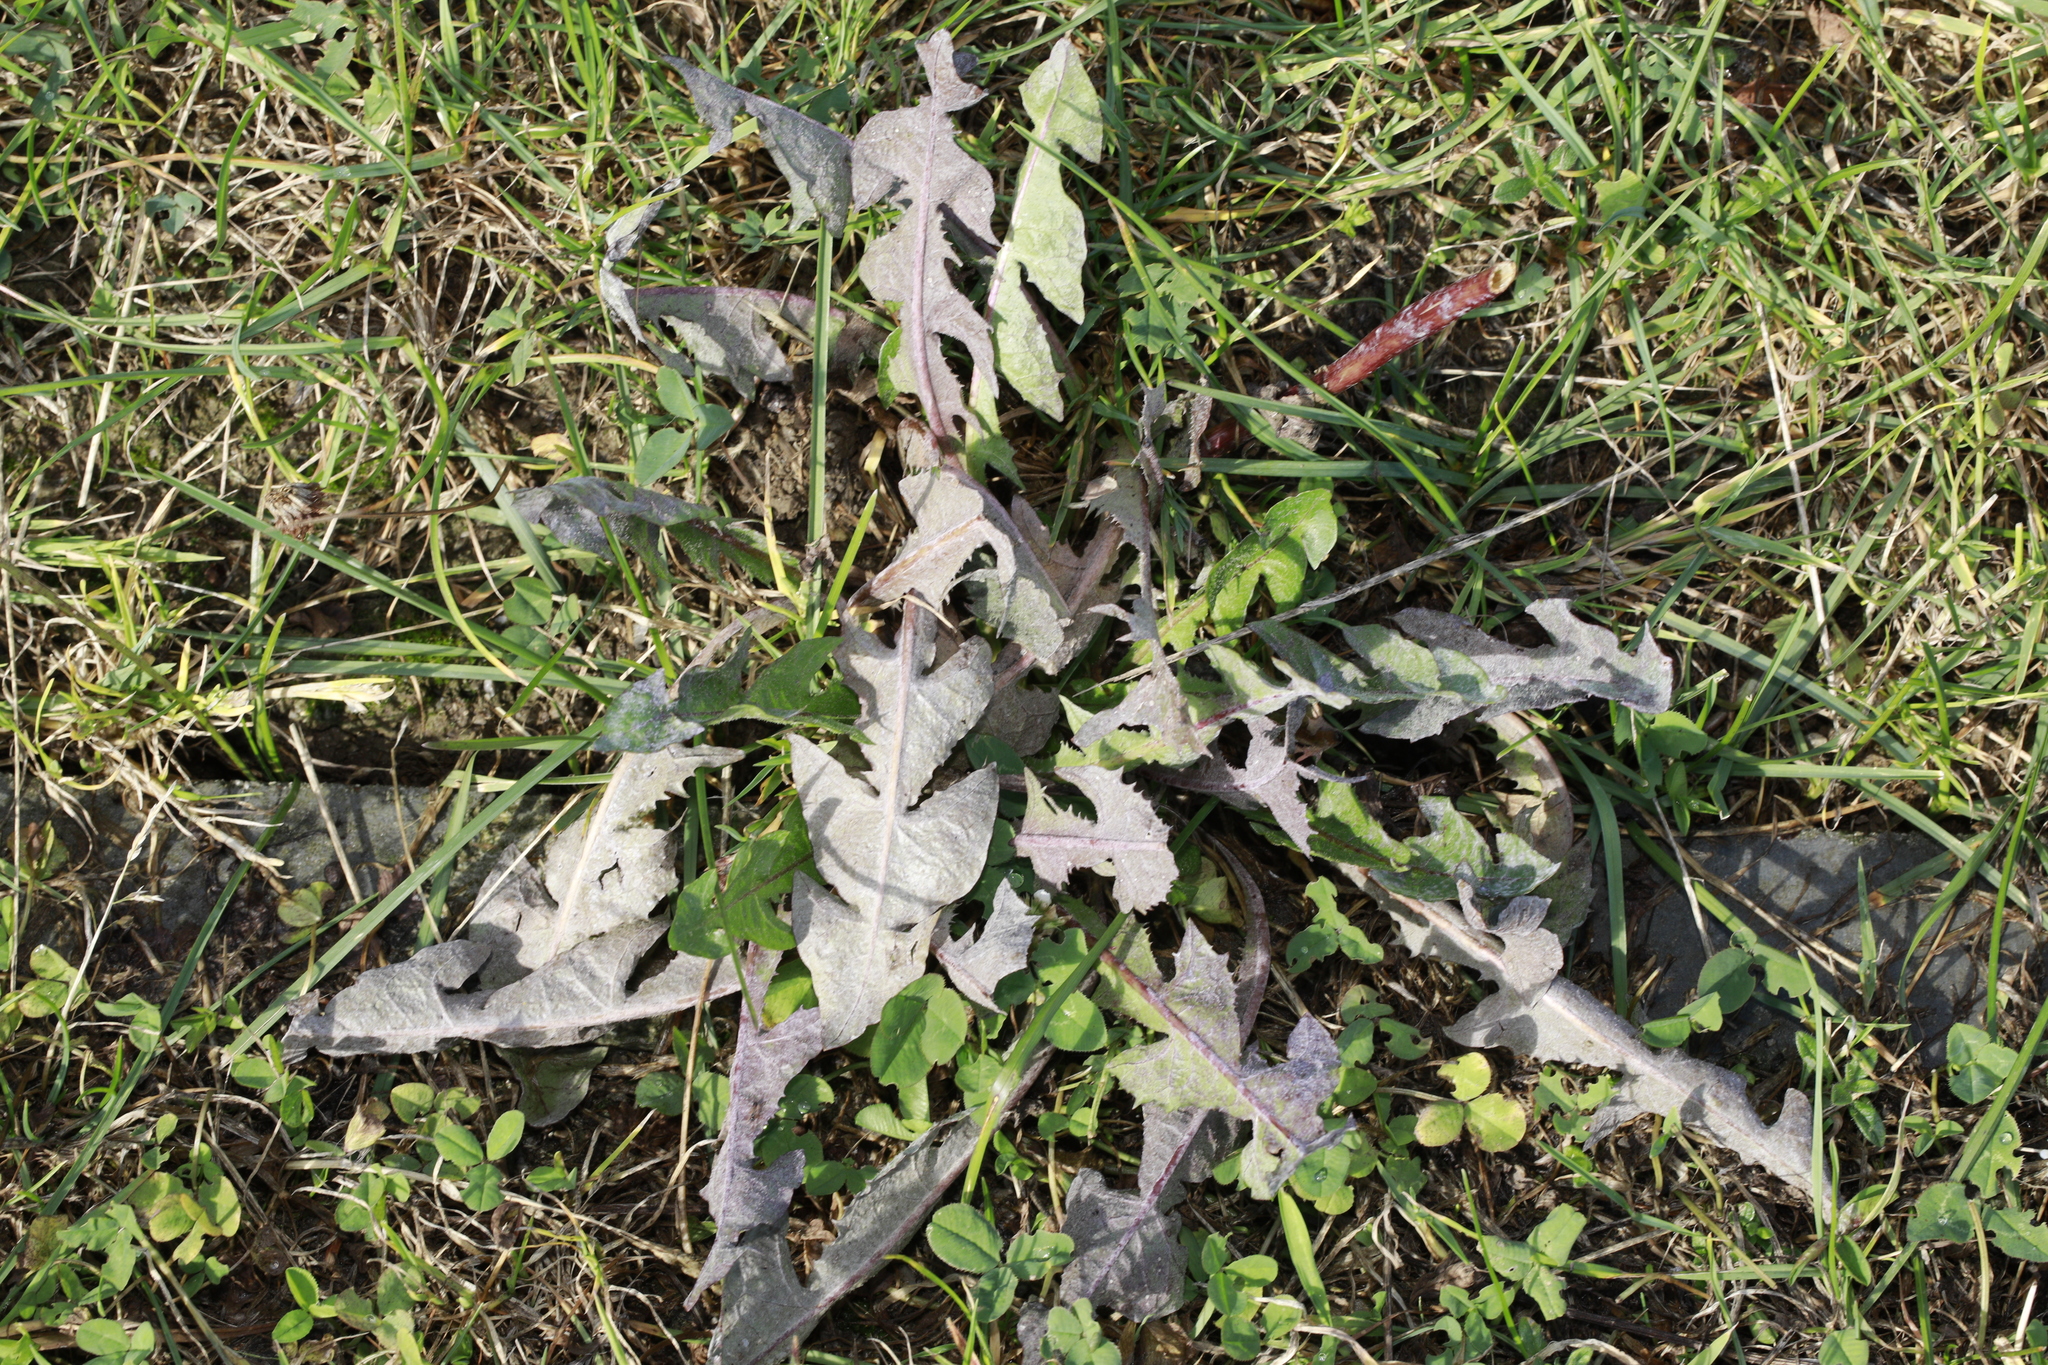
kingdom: Plantae
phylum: Tracheophyta
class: Magnoliopsida
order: Asterales
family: Asteraceae
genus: Taraxacum
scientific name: Taraxacum officinale
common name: Common dandelion
